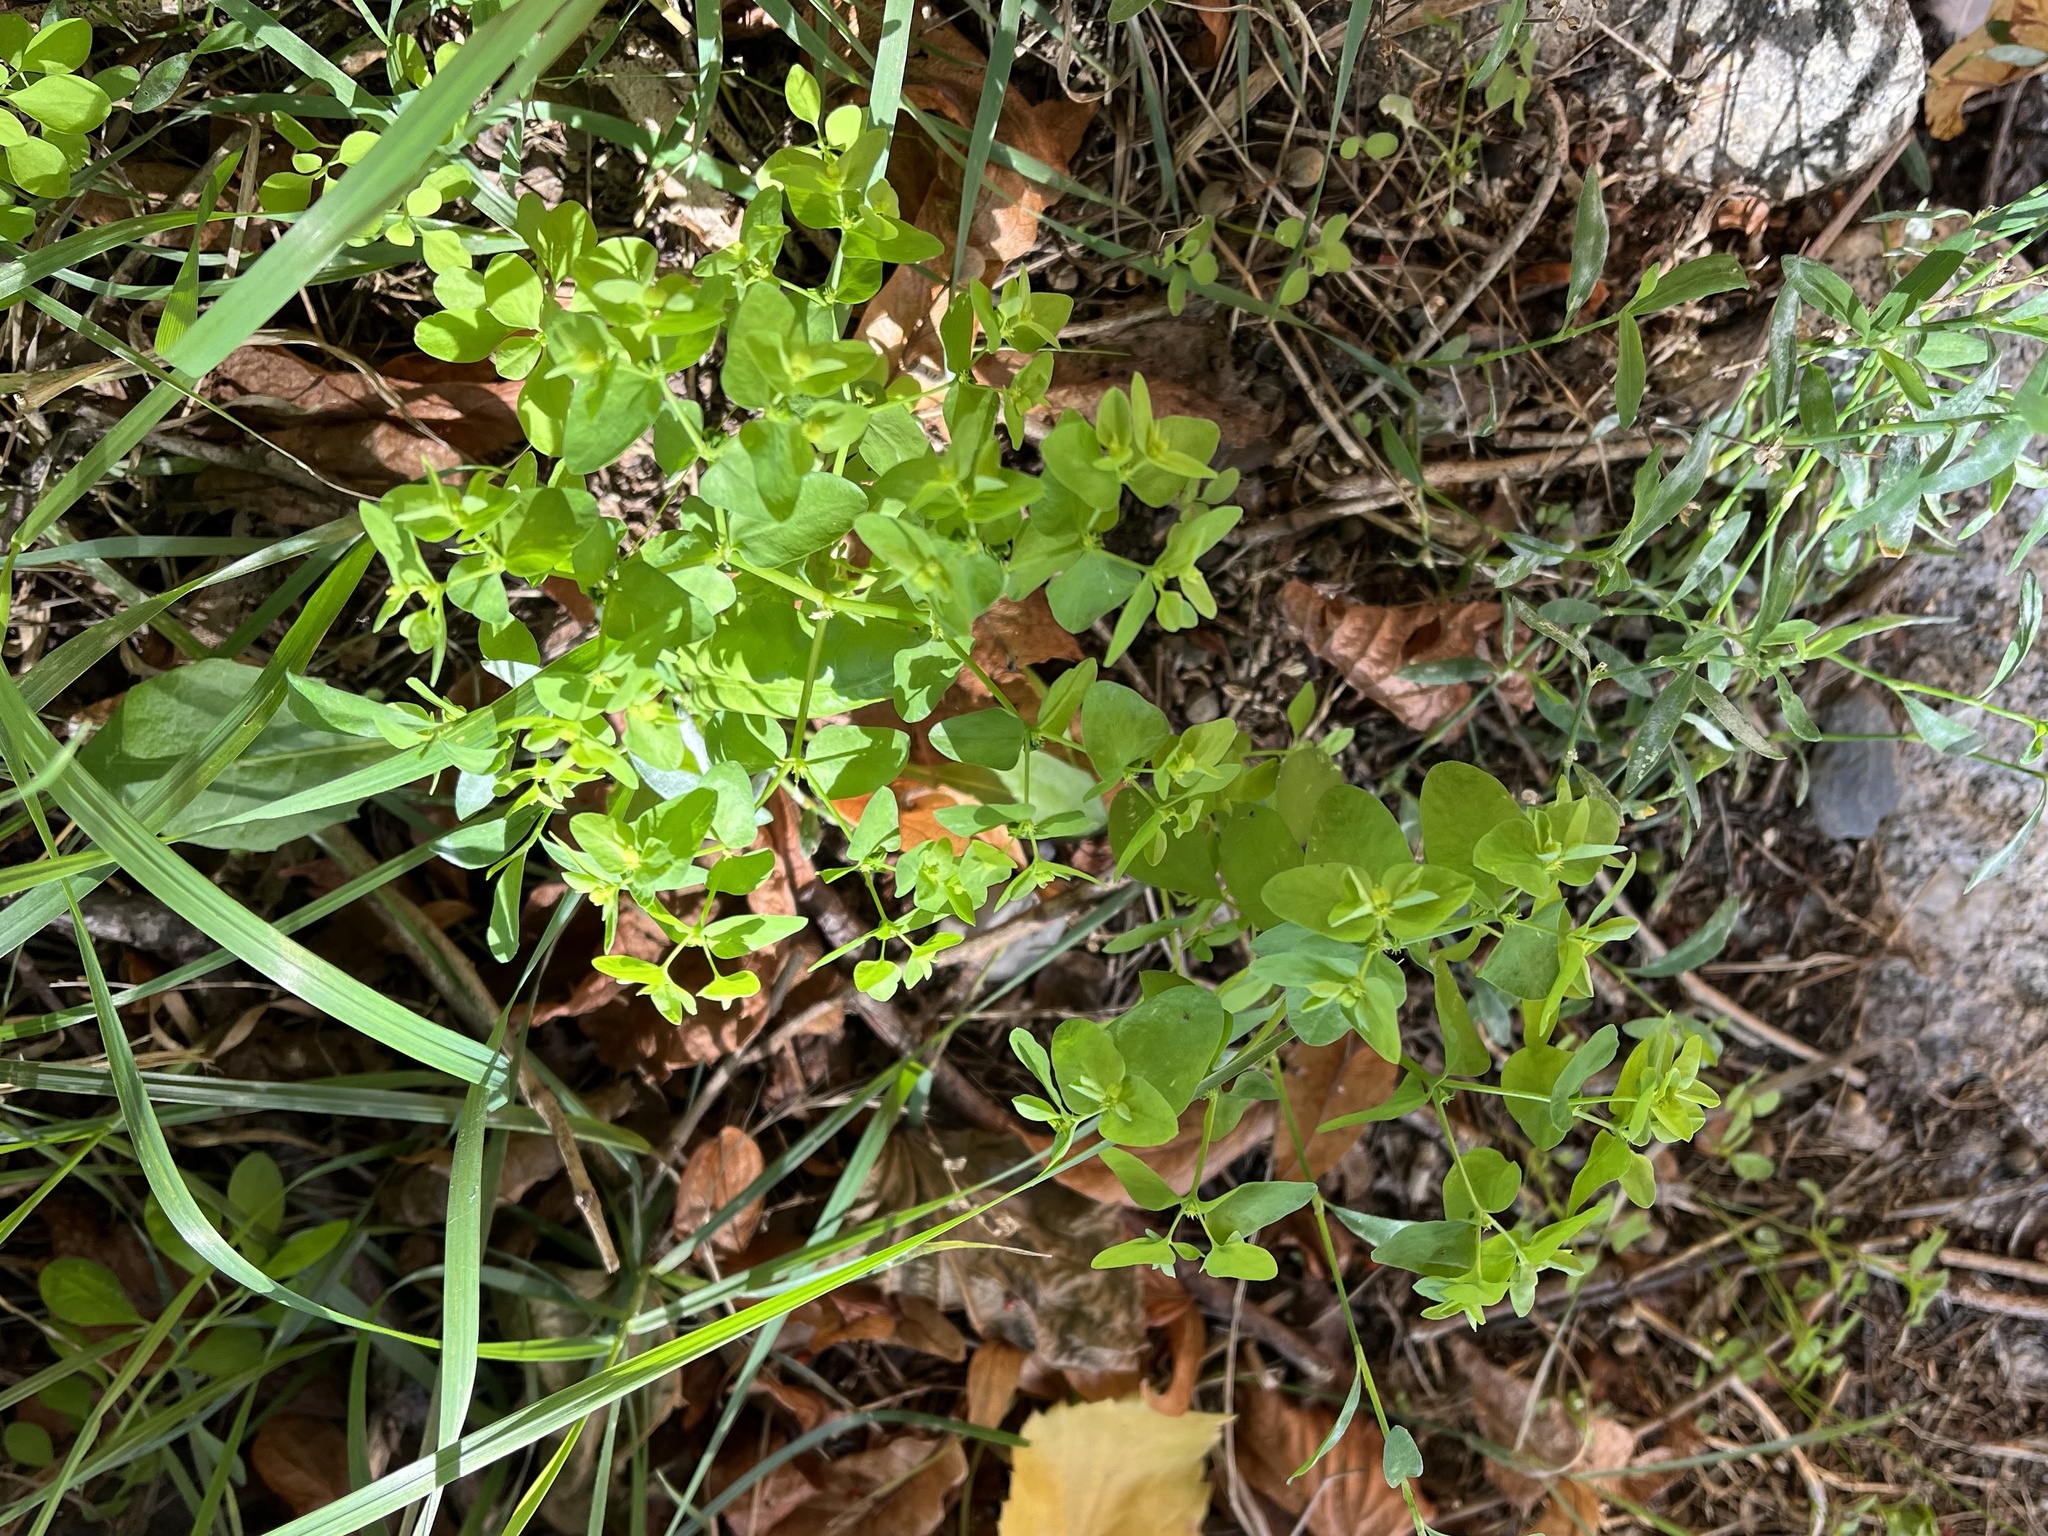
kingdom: Plantae
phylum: Tracheophyta
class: Magnoliopsida
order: Malpighiales
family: Euphorbiaceae
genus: Euphorbia
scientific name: Euphorbia peplus
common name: Petty spurge
